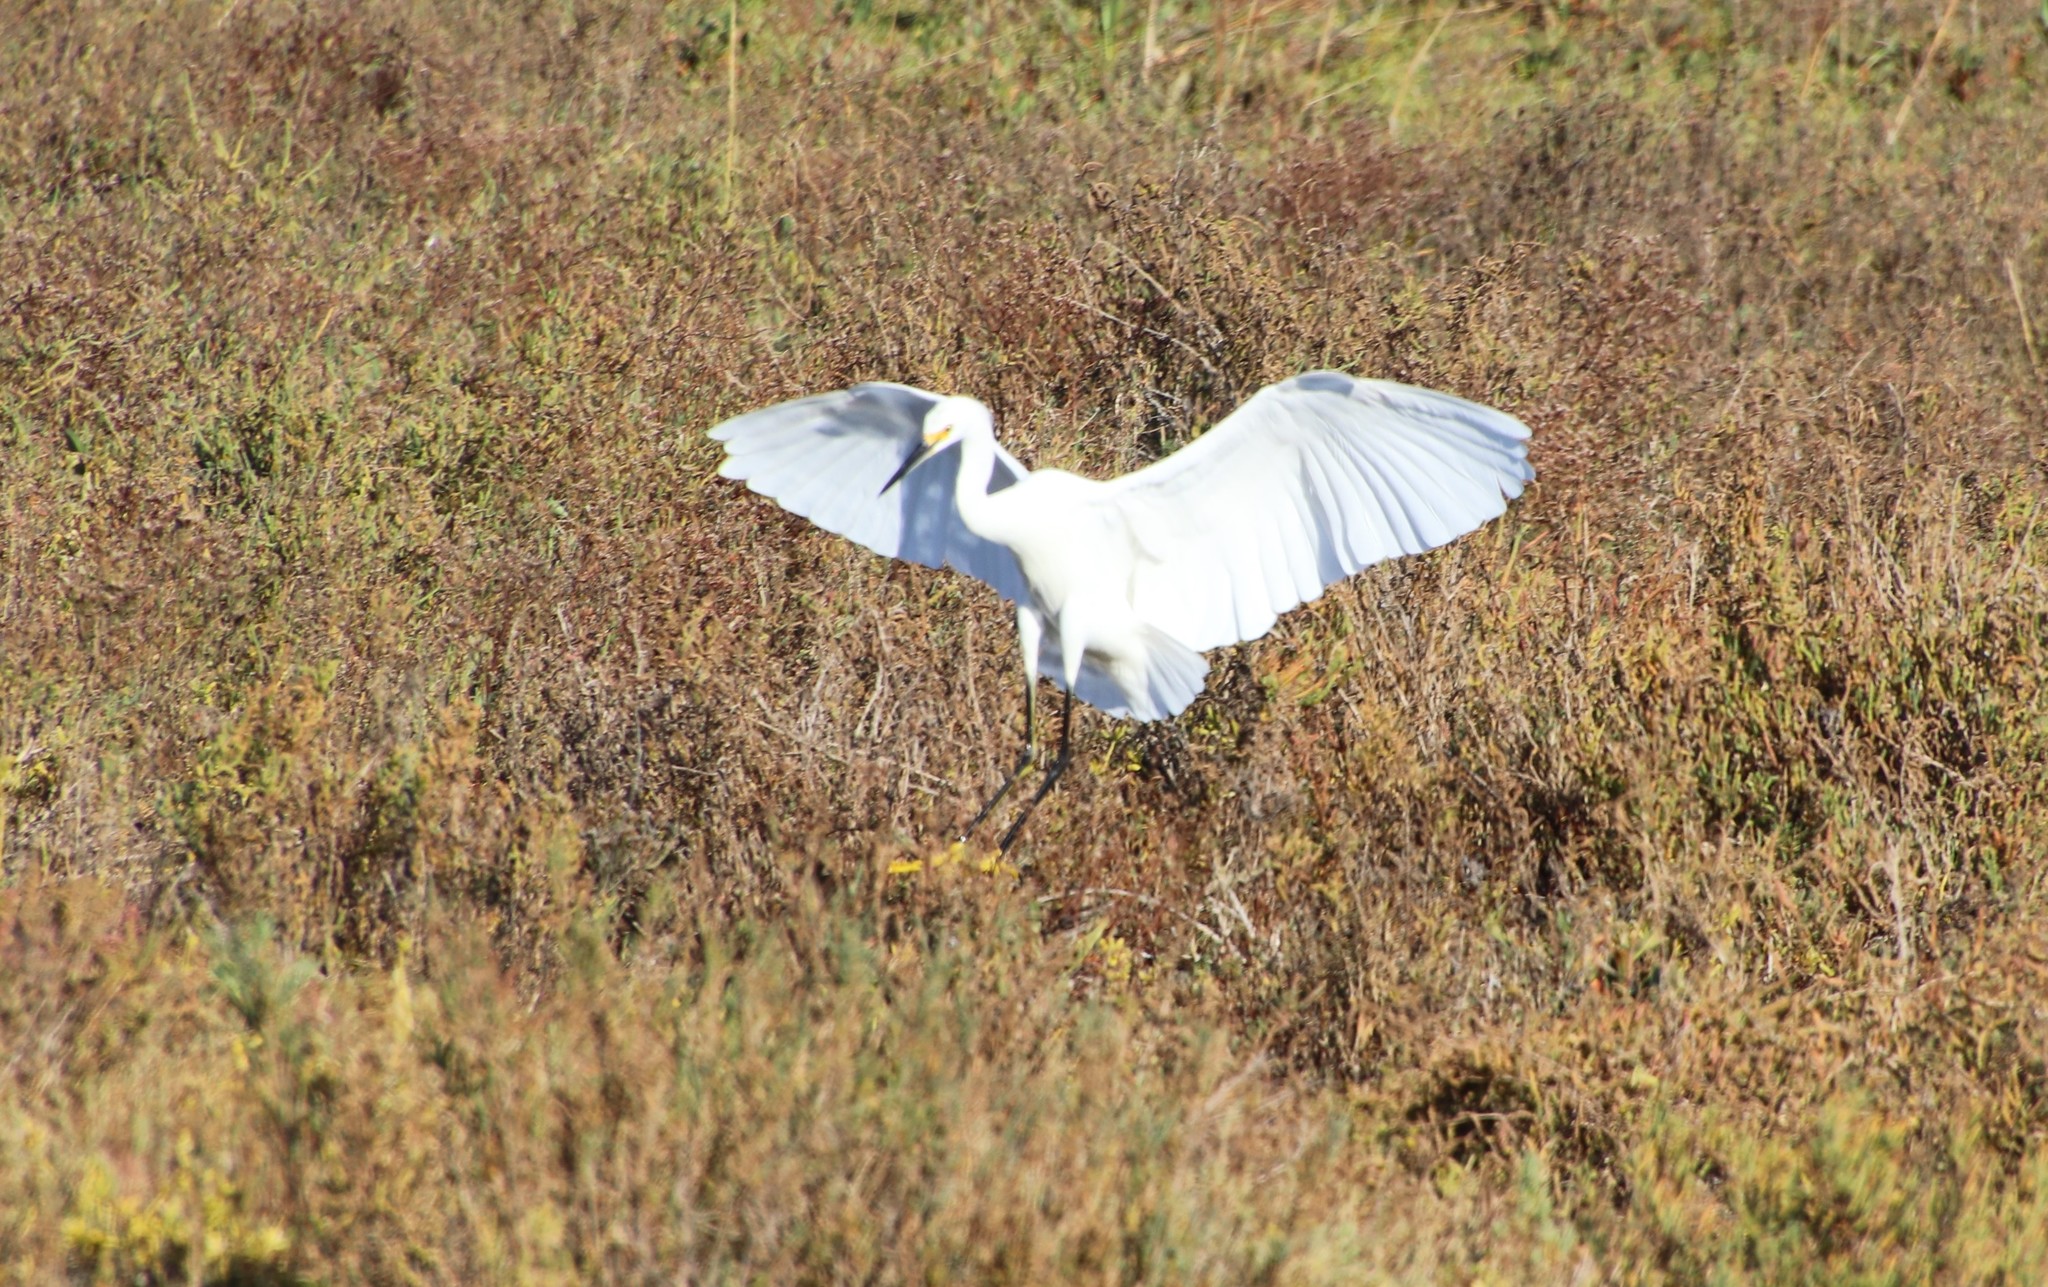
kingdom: Animalia
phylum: Chordata
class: Aves
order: Pelecaniformes
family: Ardeidae
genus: Egretta
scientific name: Egretta thula
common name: Snowy egret
